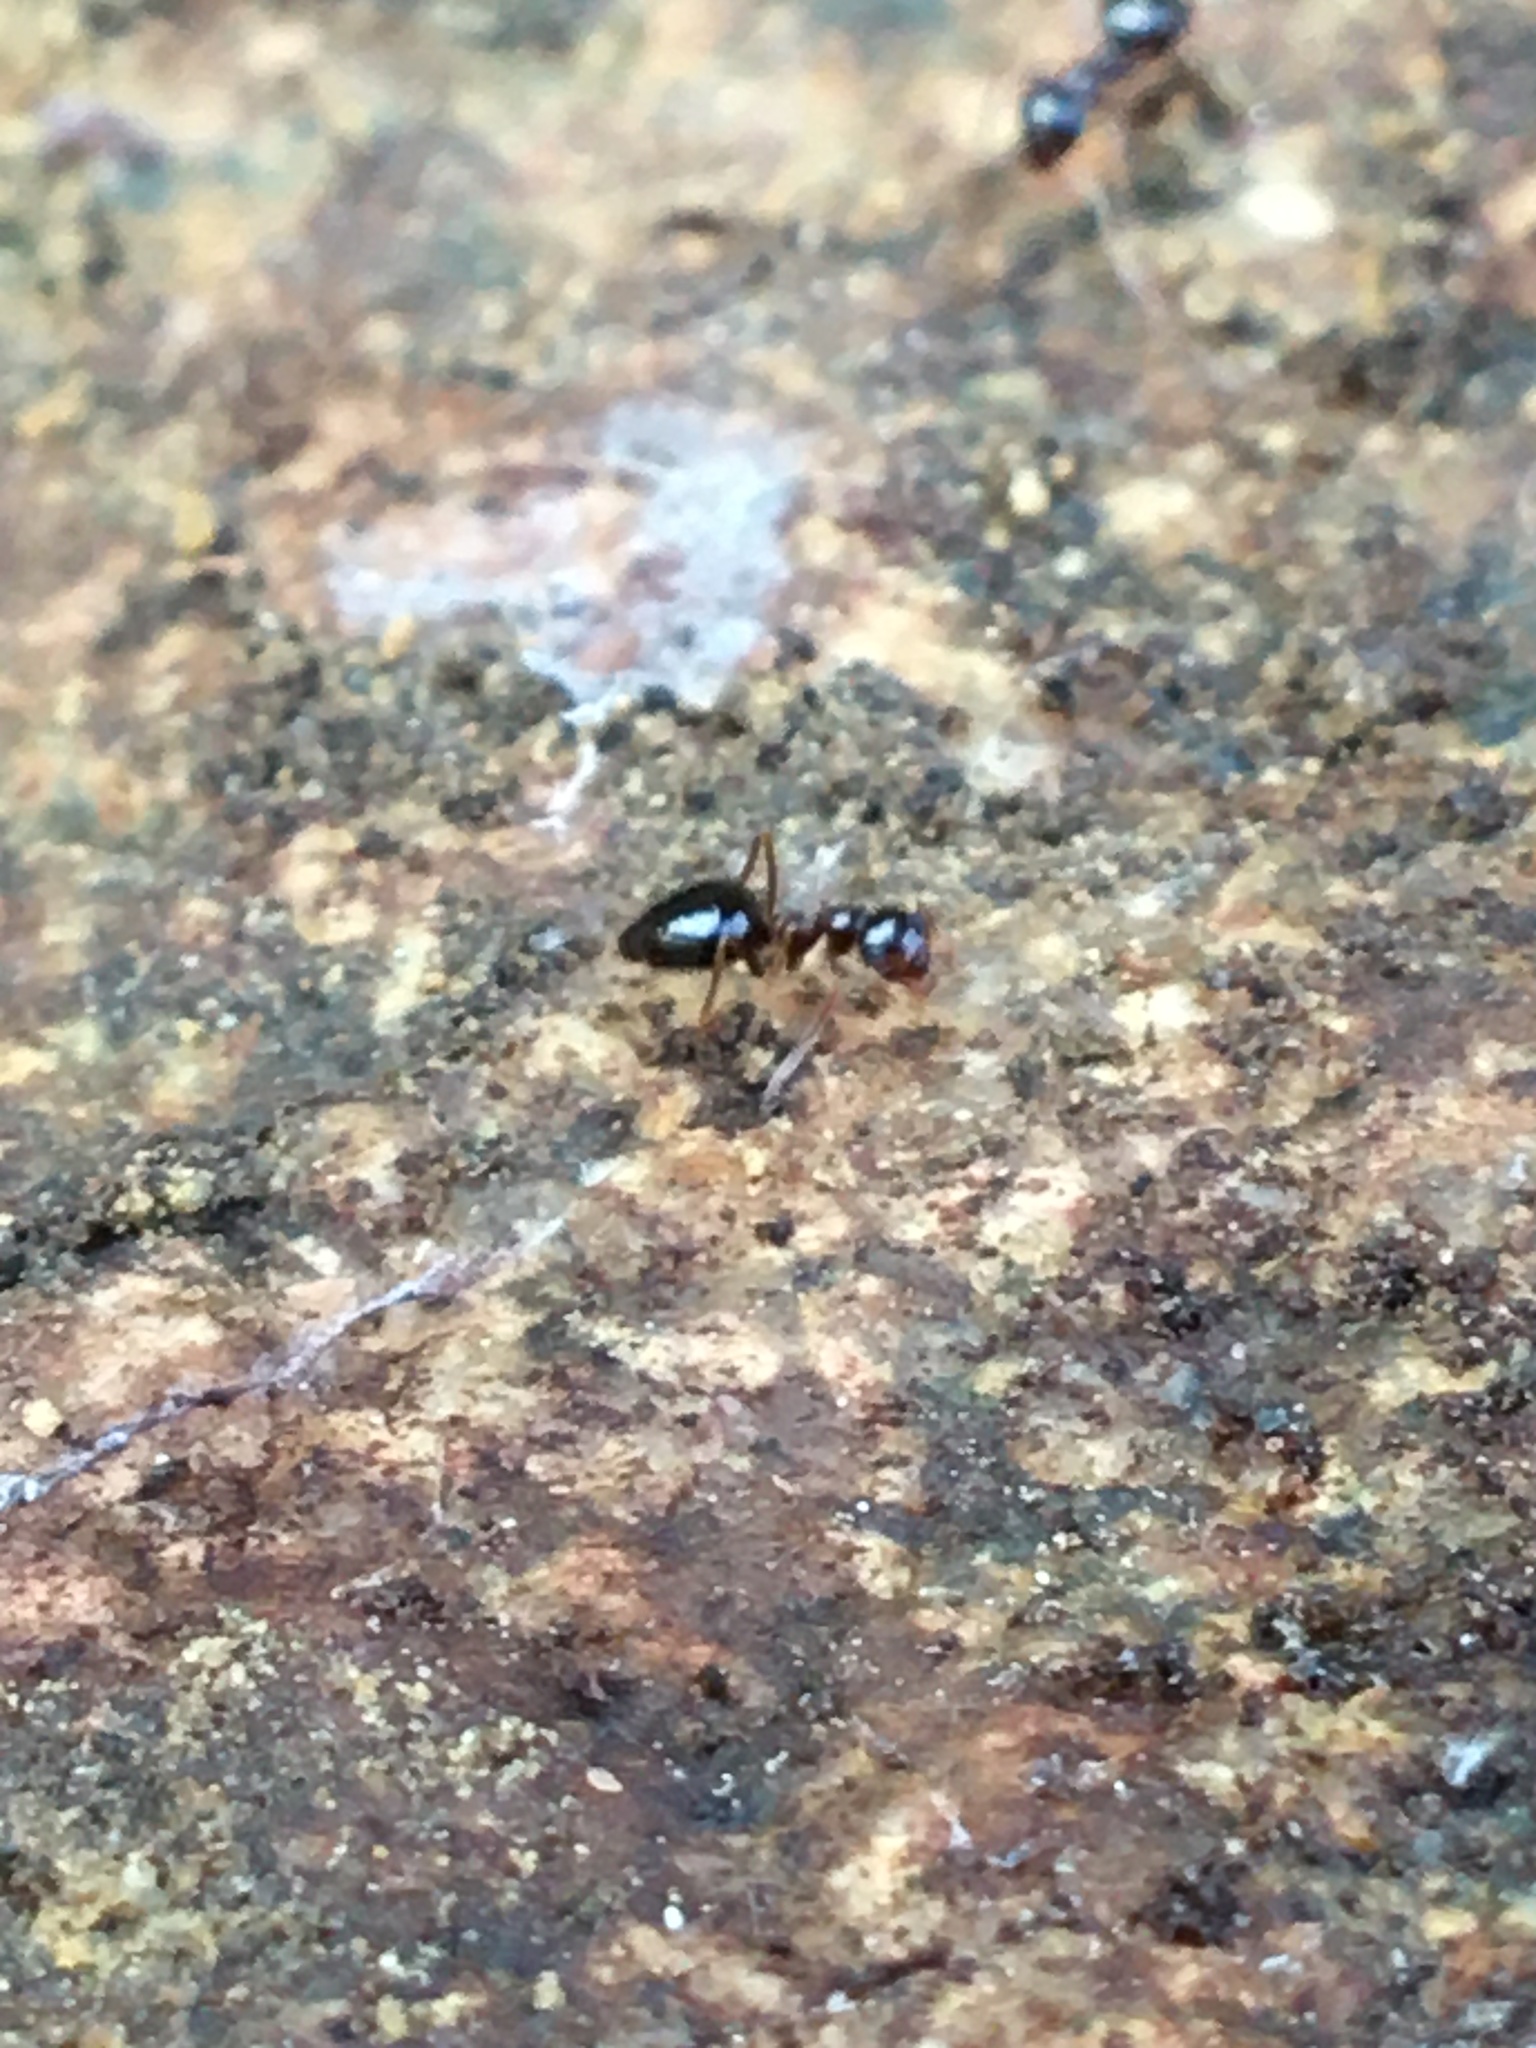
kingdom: Animalia
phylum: Arthropoda
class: Insecta
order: Hymenoptera
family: Formicidae
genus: Prenolepis
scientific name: Prenolepis imparis
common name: Small honey ant
